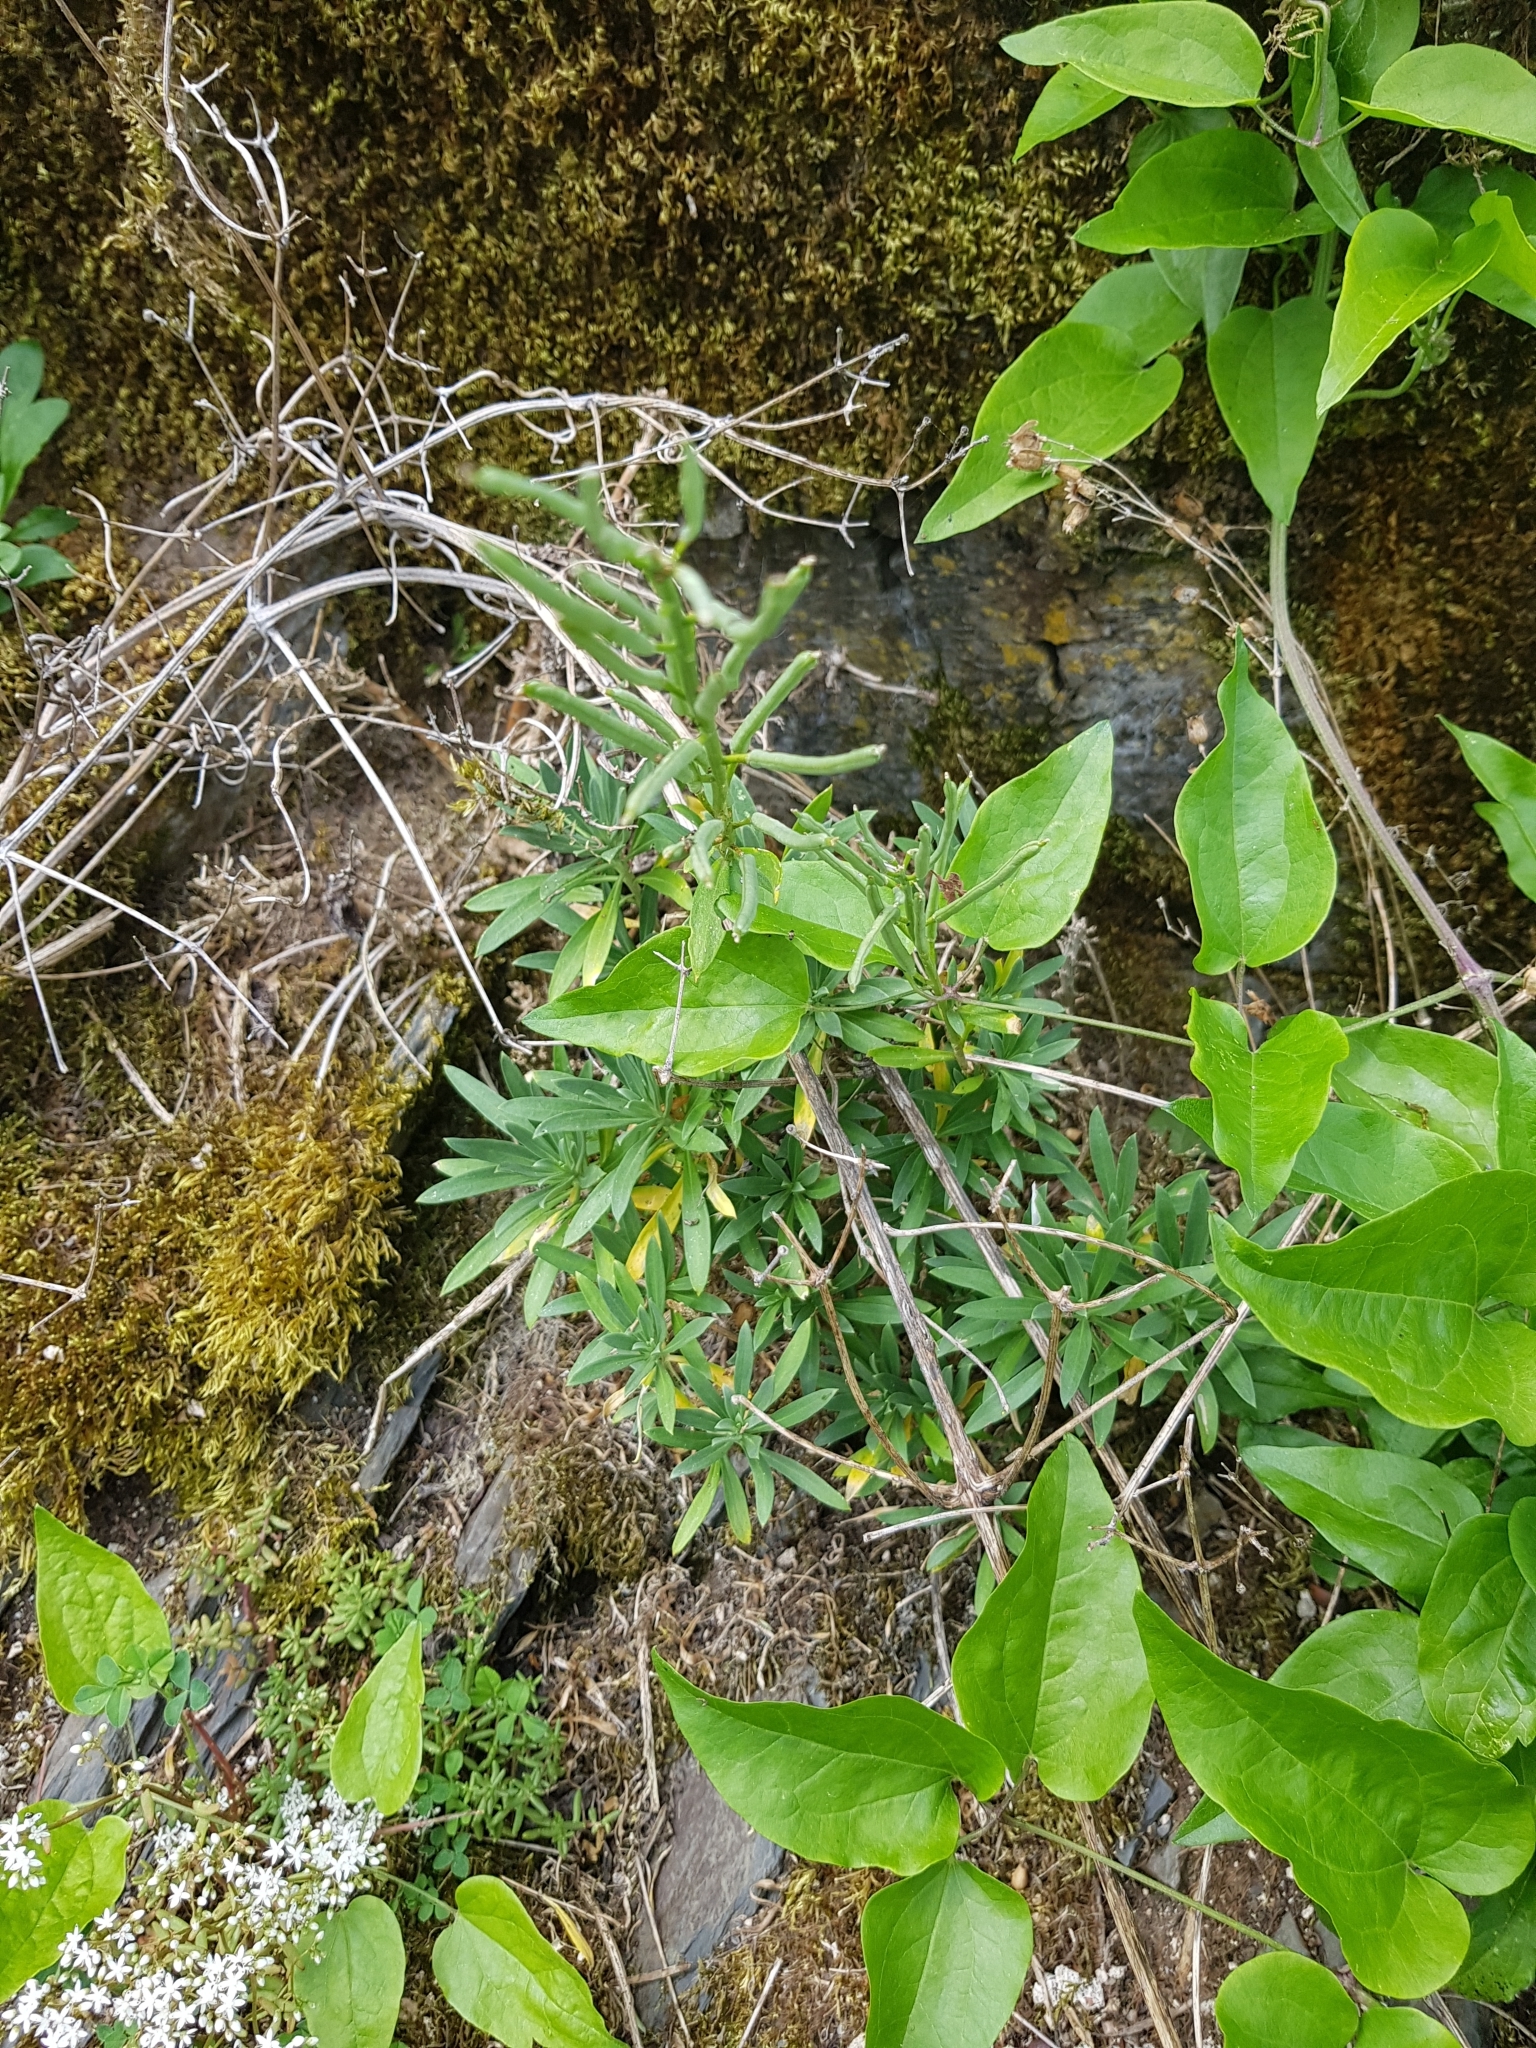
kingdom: Plantae
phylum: Tracheophyta
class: Magnoliopsida
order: Brassicales
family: Brassicaceae
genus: Erysimum
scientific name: Erysimum cheiri
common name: Wallflower
